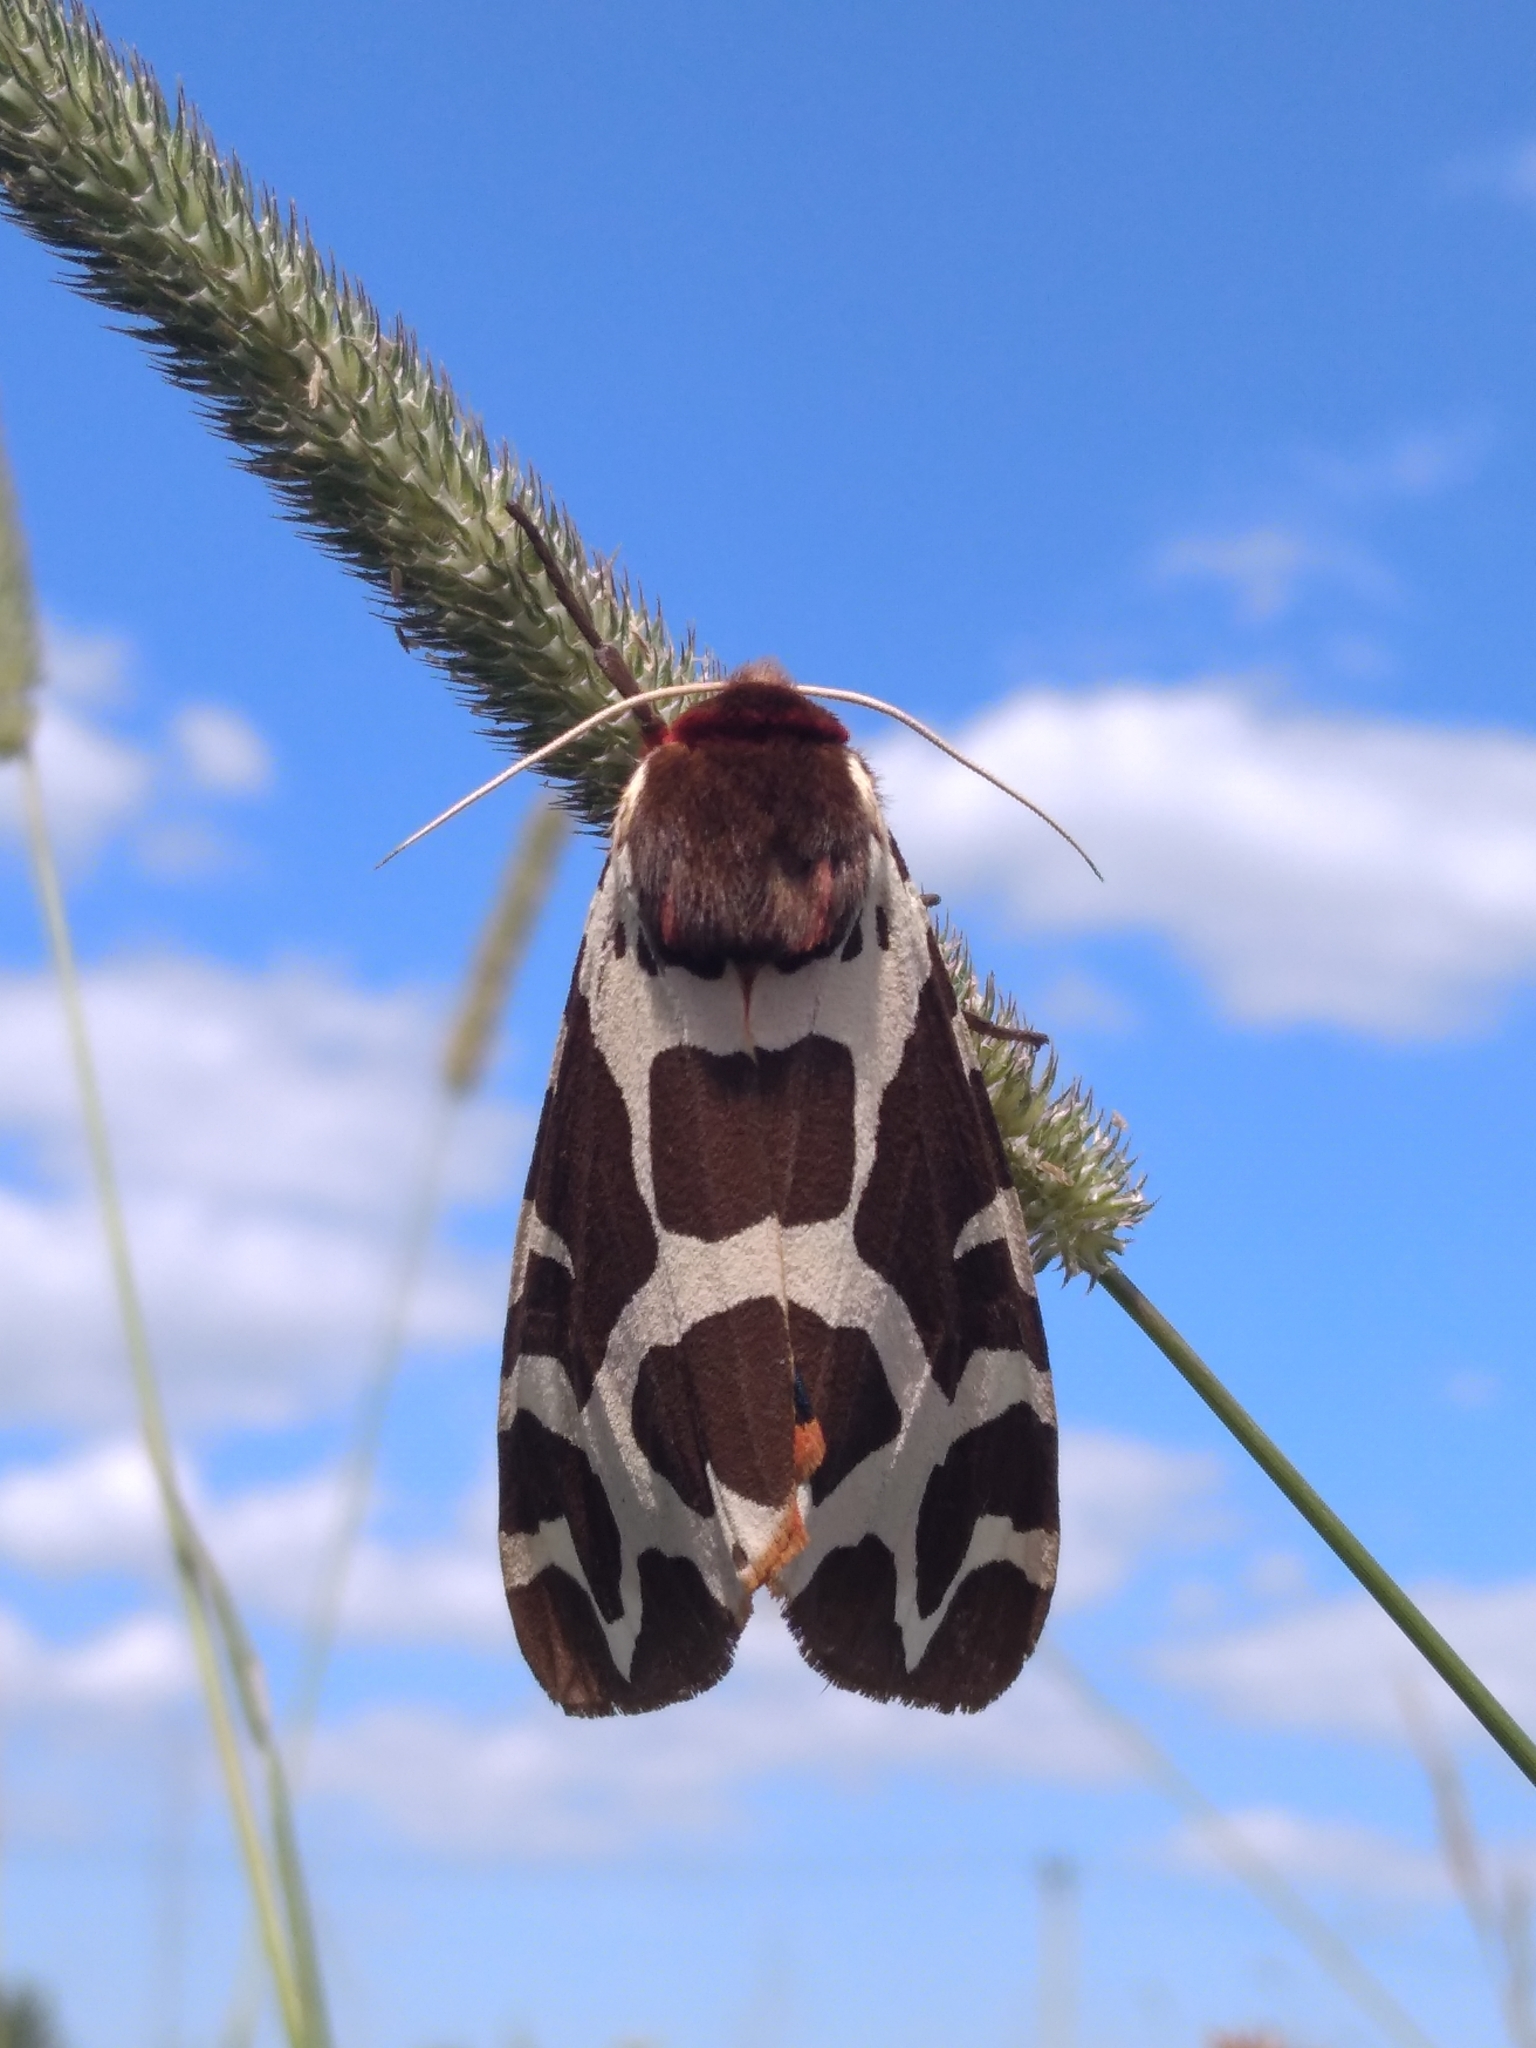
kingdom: Animalia
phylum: Arthropoda
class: Insecta
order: Lepidoptera
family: Erebidae
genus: Arctia
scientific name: Arctia caja
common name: Garden tiger
